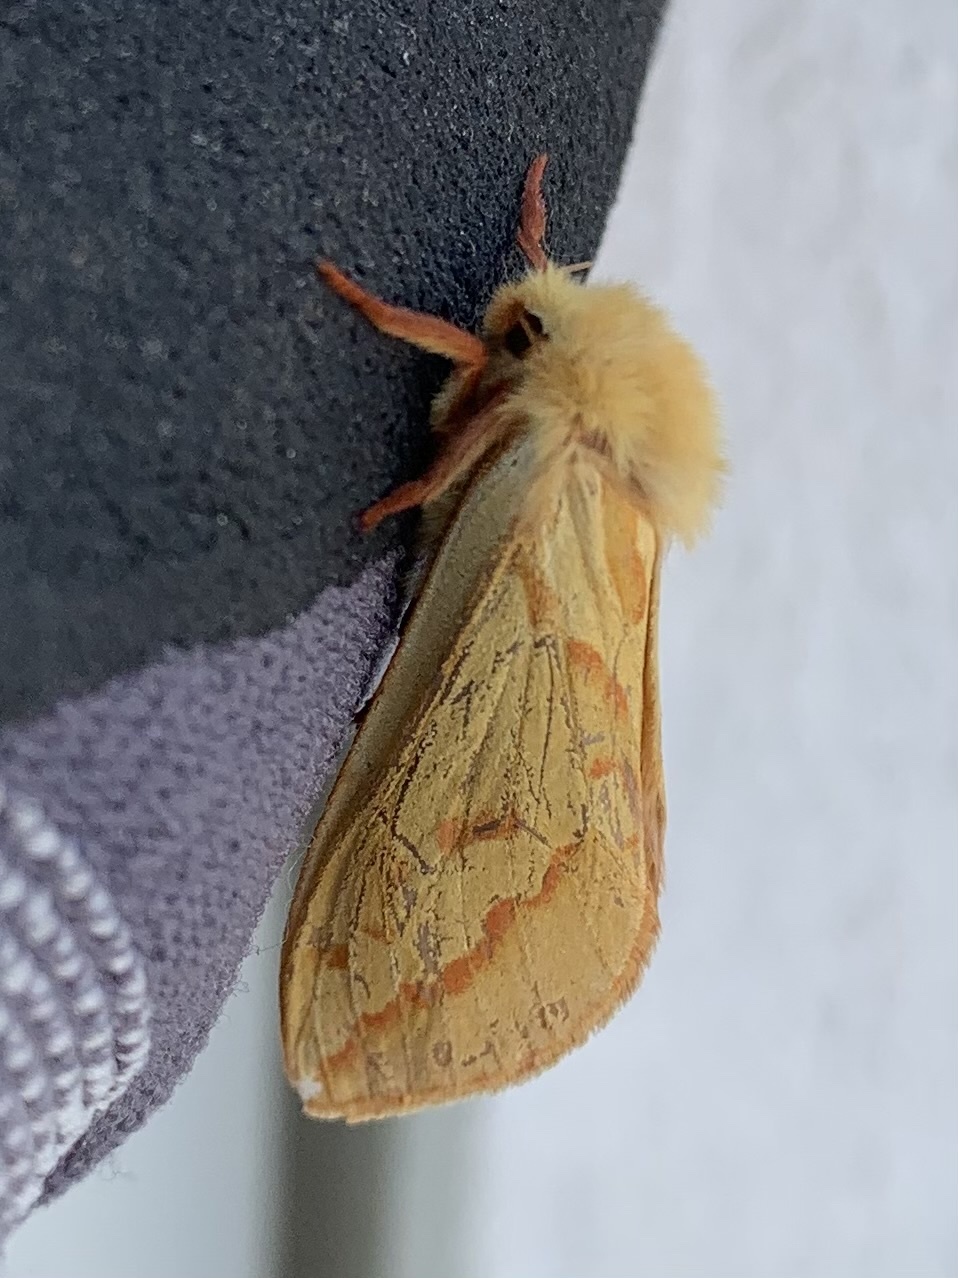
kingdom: Animalia
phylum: Arthropoda
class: Insecta
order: Lepidoptera
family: Hepialidae
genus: Hepialus
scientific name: Hepialus humuli
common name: Ghost moth
